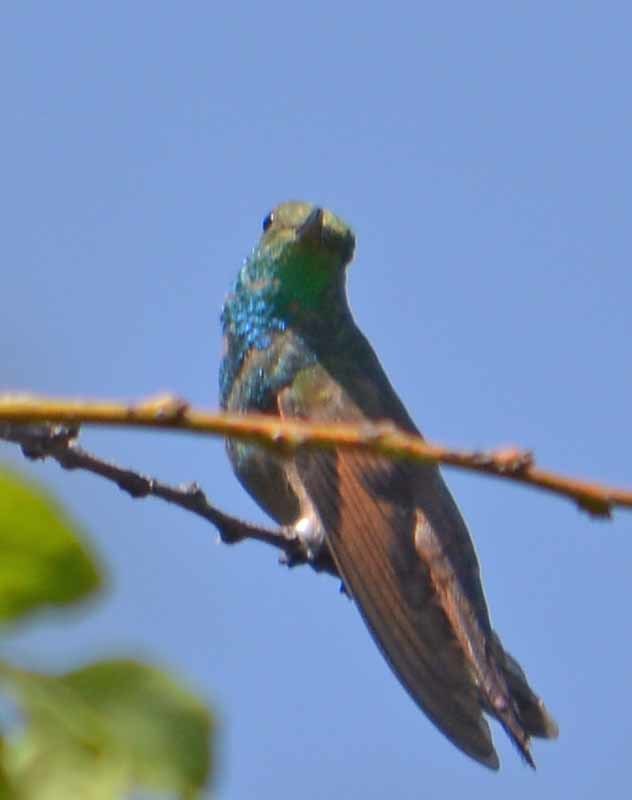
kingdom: Animalia
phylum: Chordata
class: Aves
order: Apodiformes
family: Trochilidae
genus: Saucerottia
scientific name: Saucerottia beryllina
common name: Berylline hummingbird
